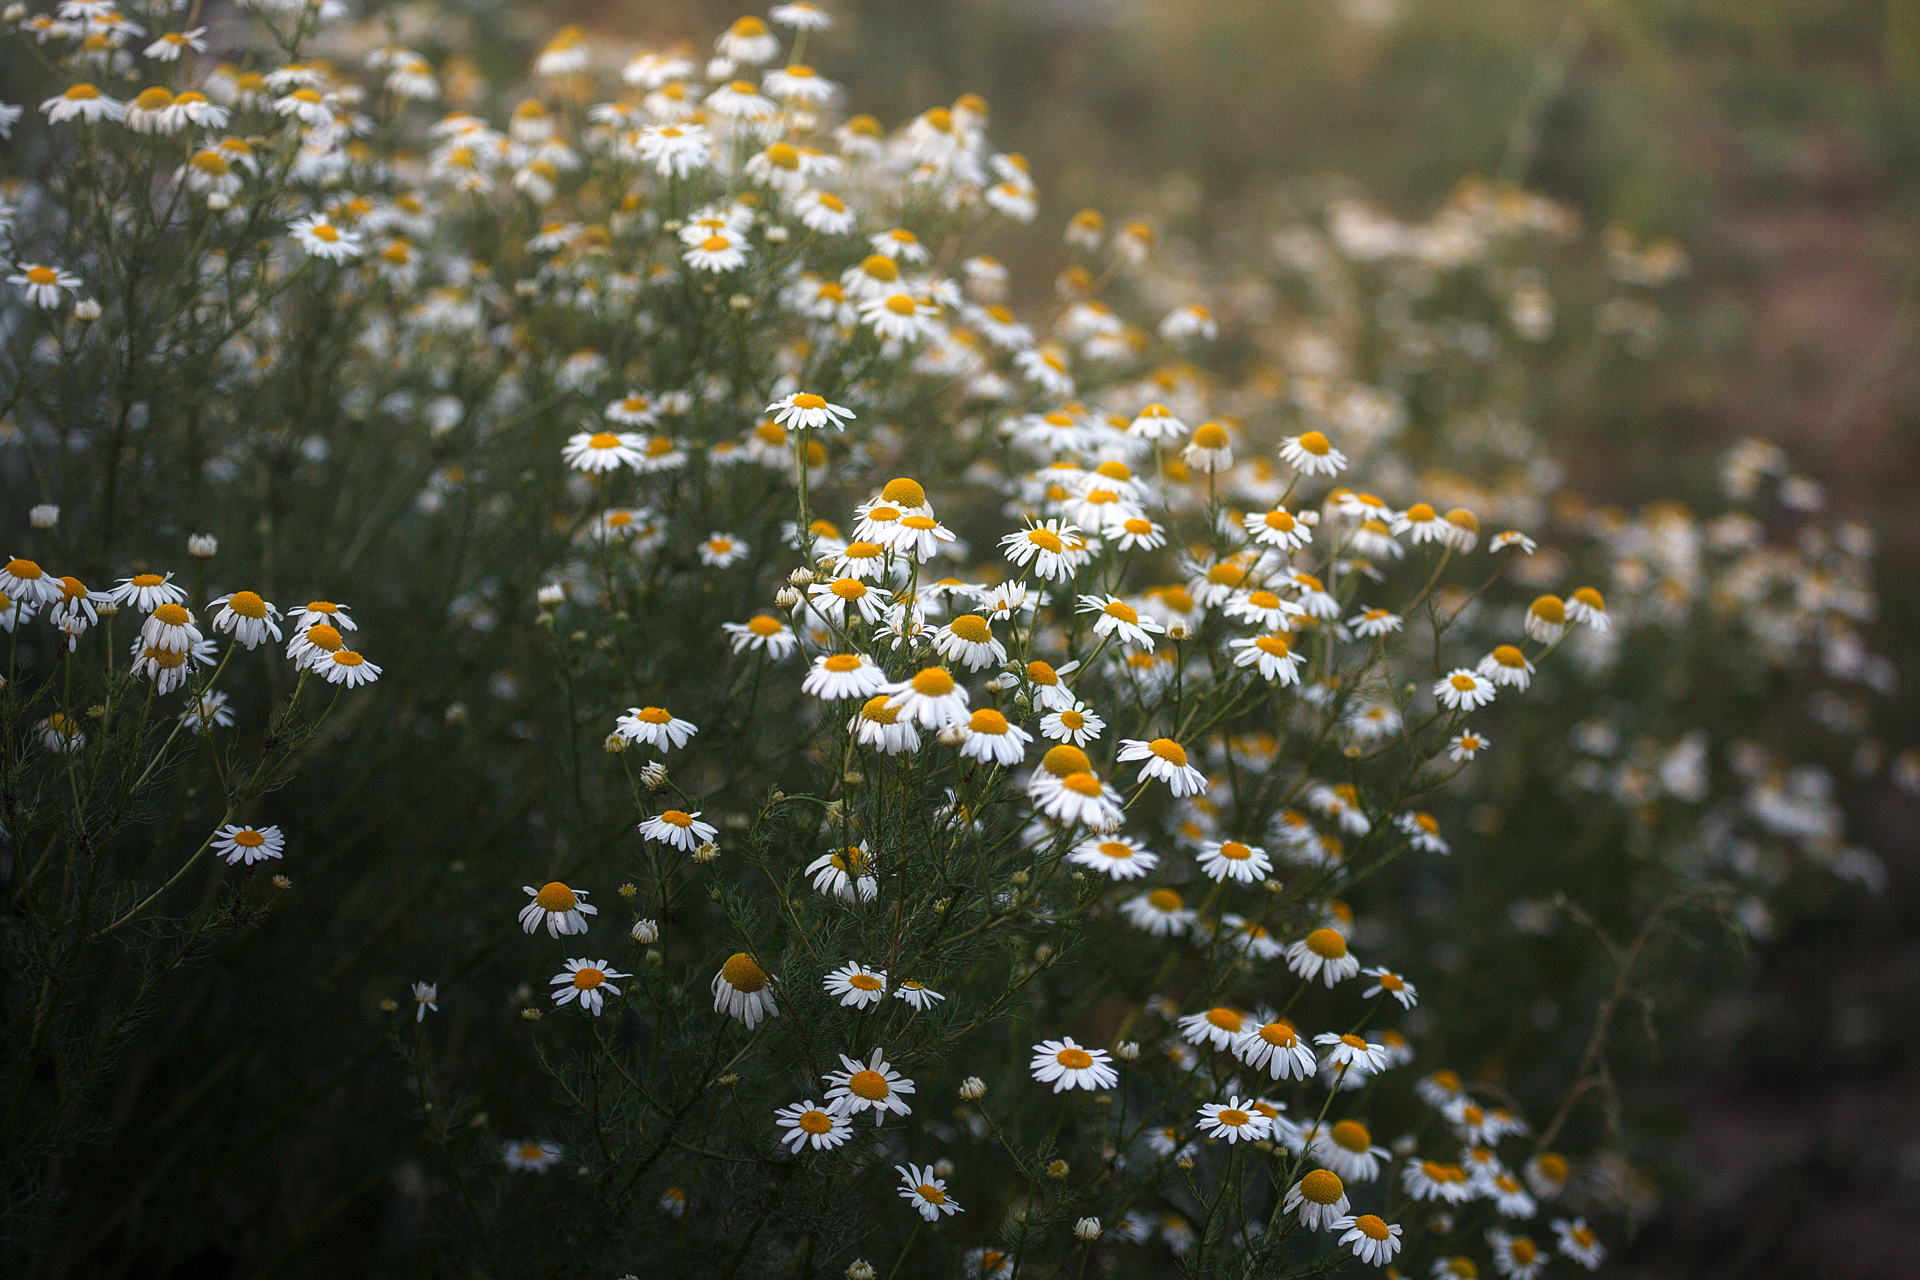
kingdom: Plantae
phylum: Tracheophyta
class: Magnoliopsida
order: Asterales
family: Asteraceae
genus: Tripleurospermum
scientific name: Tripleurospermum inodorum
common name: Scentless mayweed
